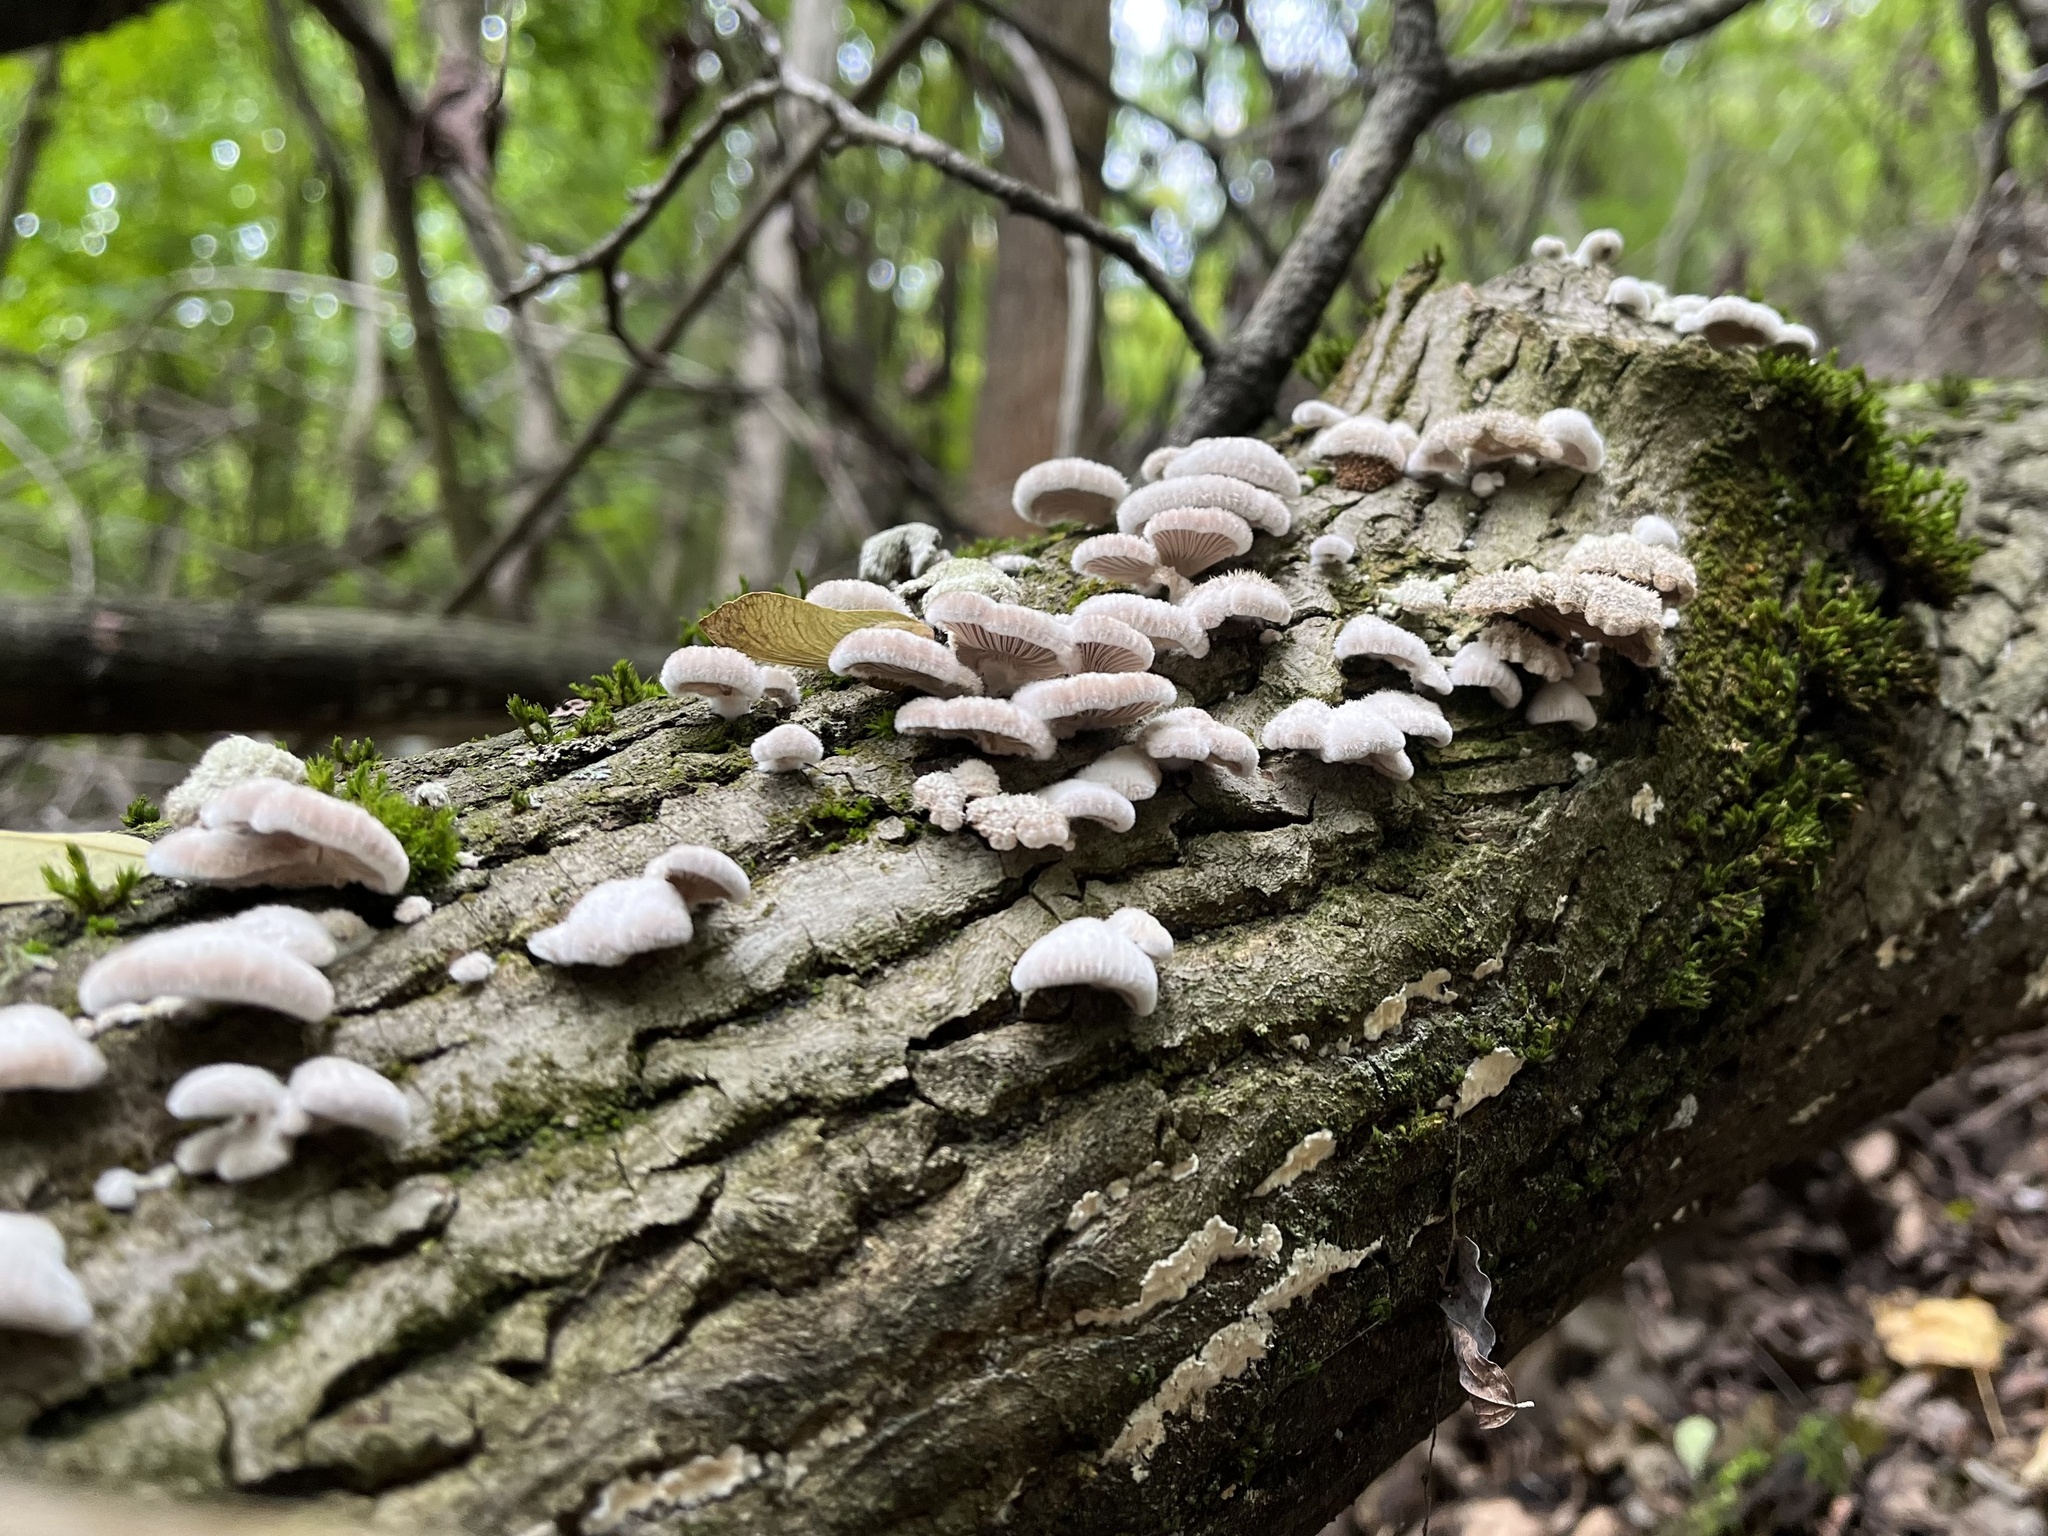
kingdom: Fungi
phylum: Basidiomycota
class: Agaricomycetes
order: Agaricales
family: Schizophyllaceae
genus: Schizophyllum
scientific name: Schizophyllum commune
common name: Common porecrust
